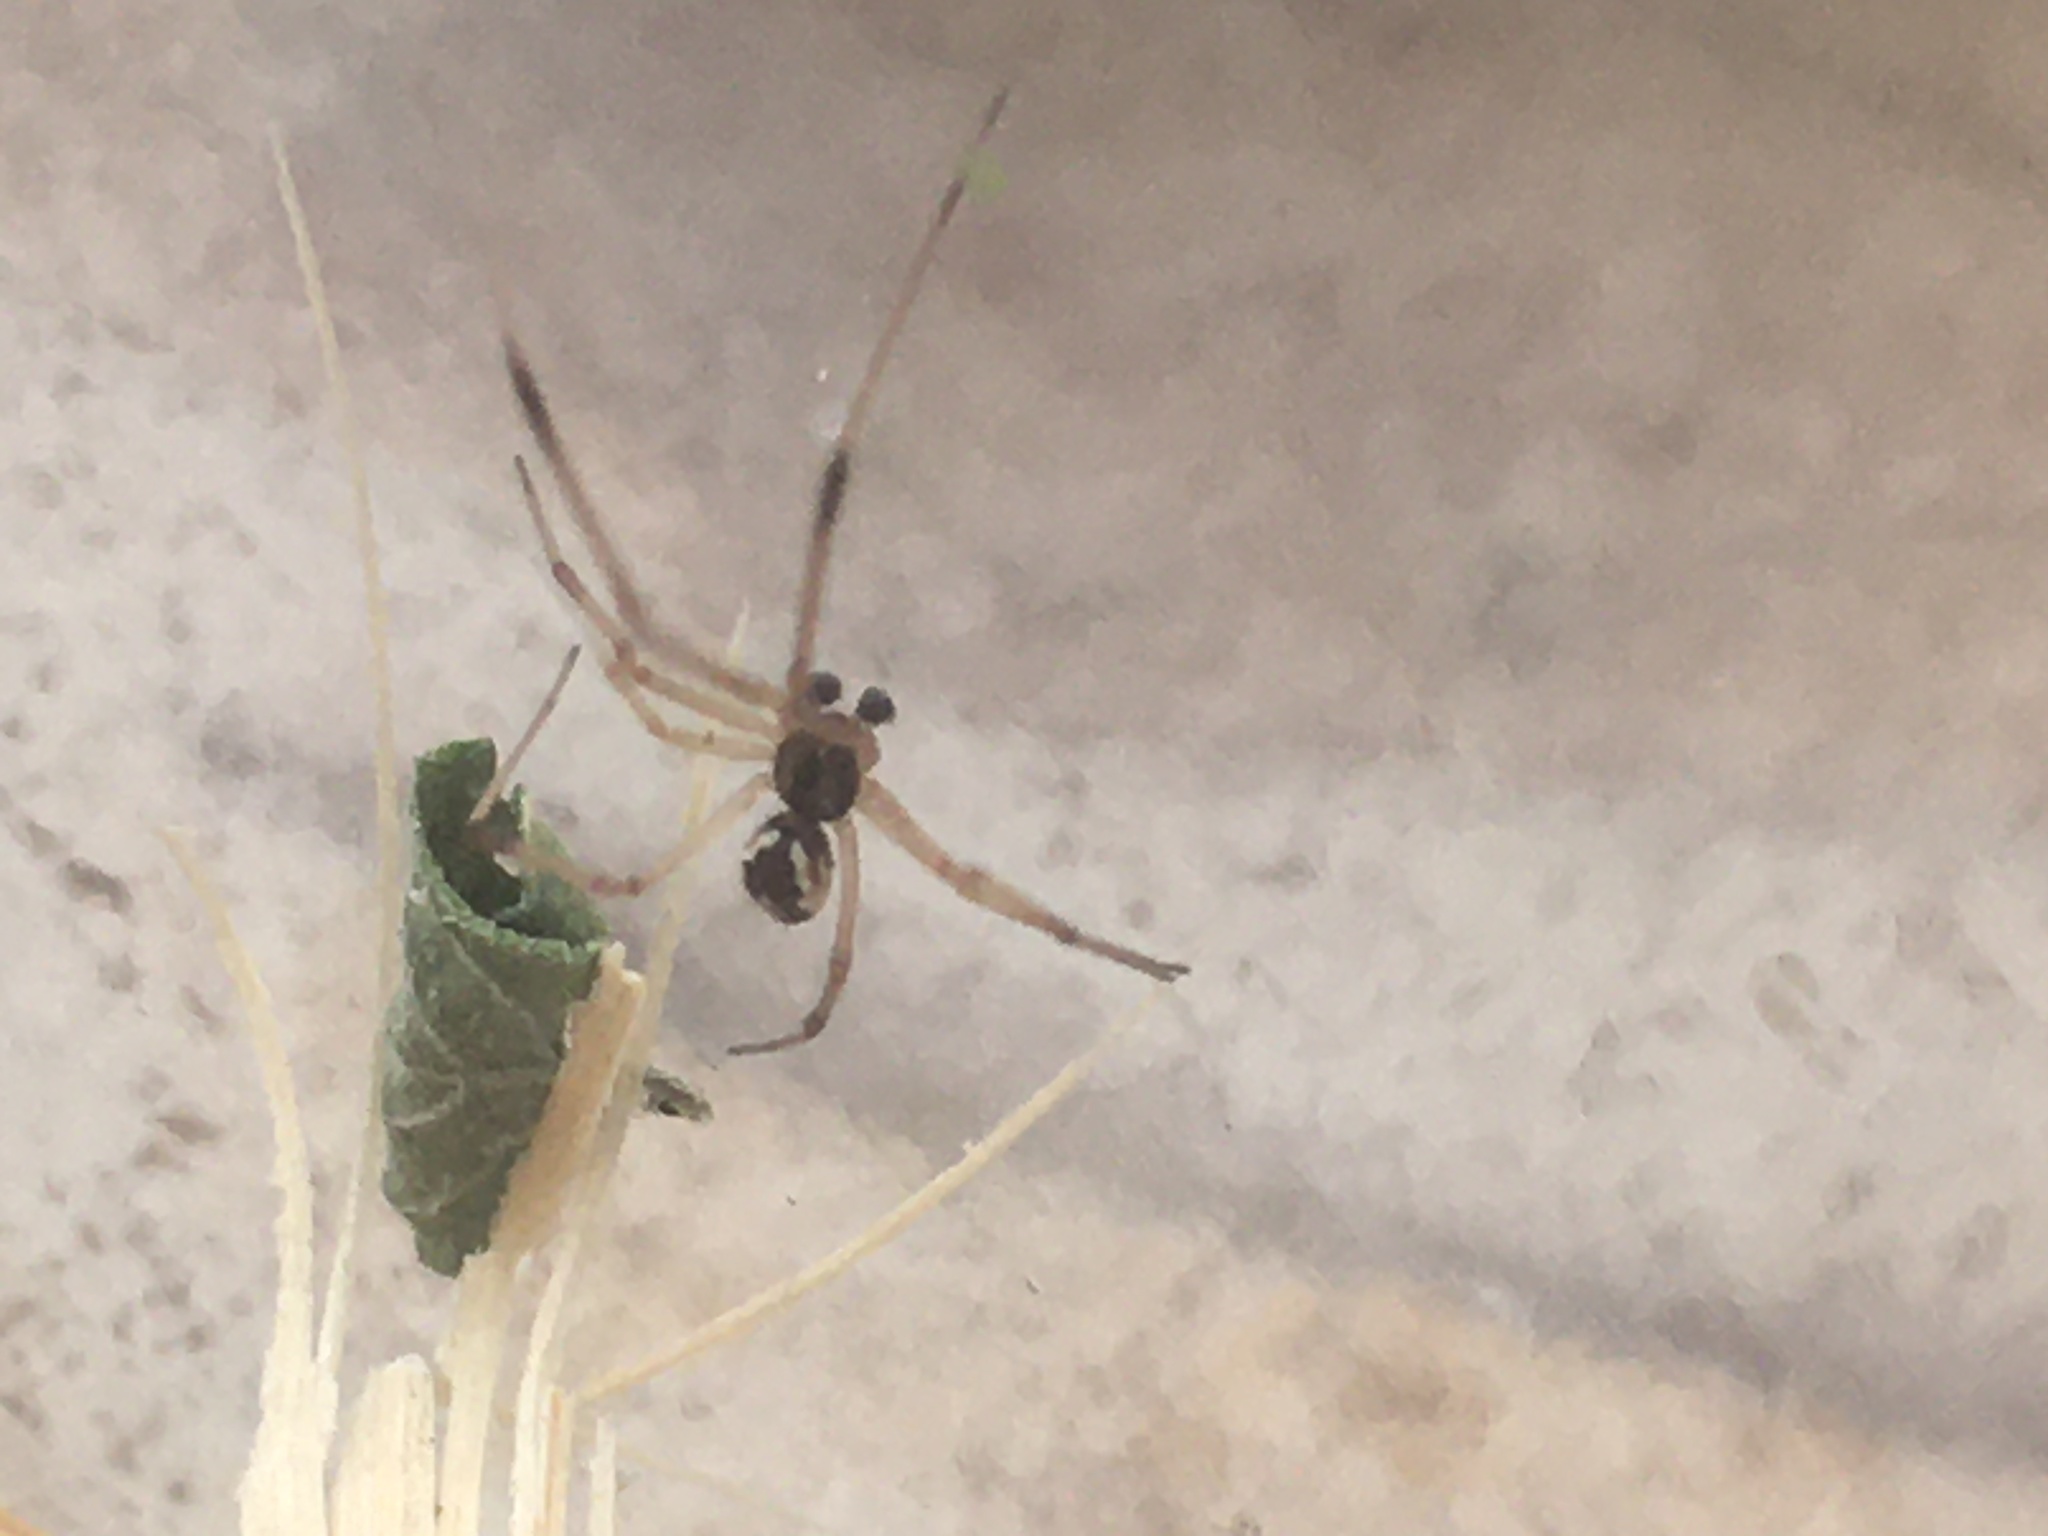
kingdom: Animalia
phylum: Arthropoda
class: Arachnida
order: Araneae
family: Theridiidae
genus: Latrodectus
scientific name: Latrodectus geometricus
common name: Brown widow spider
